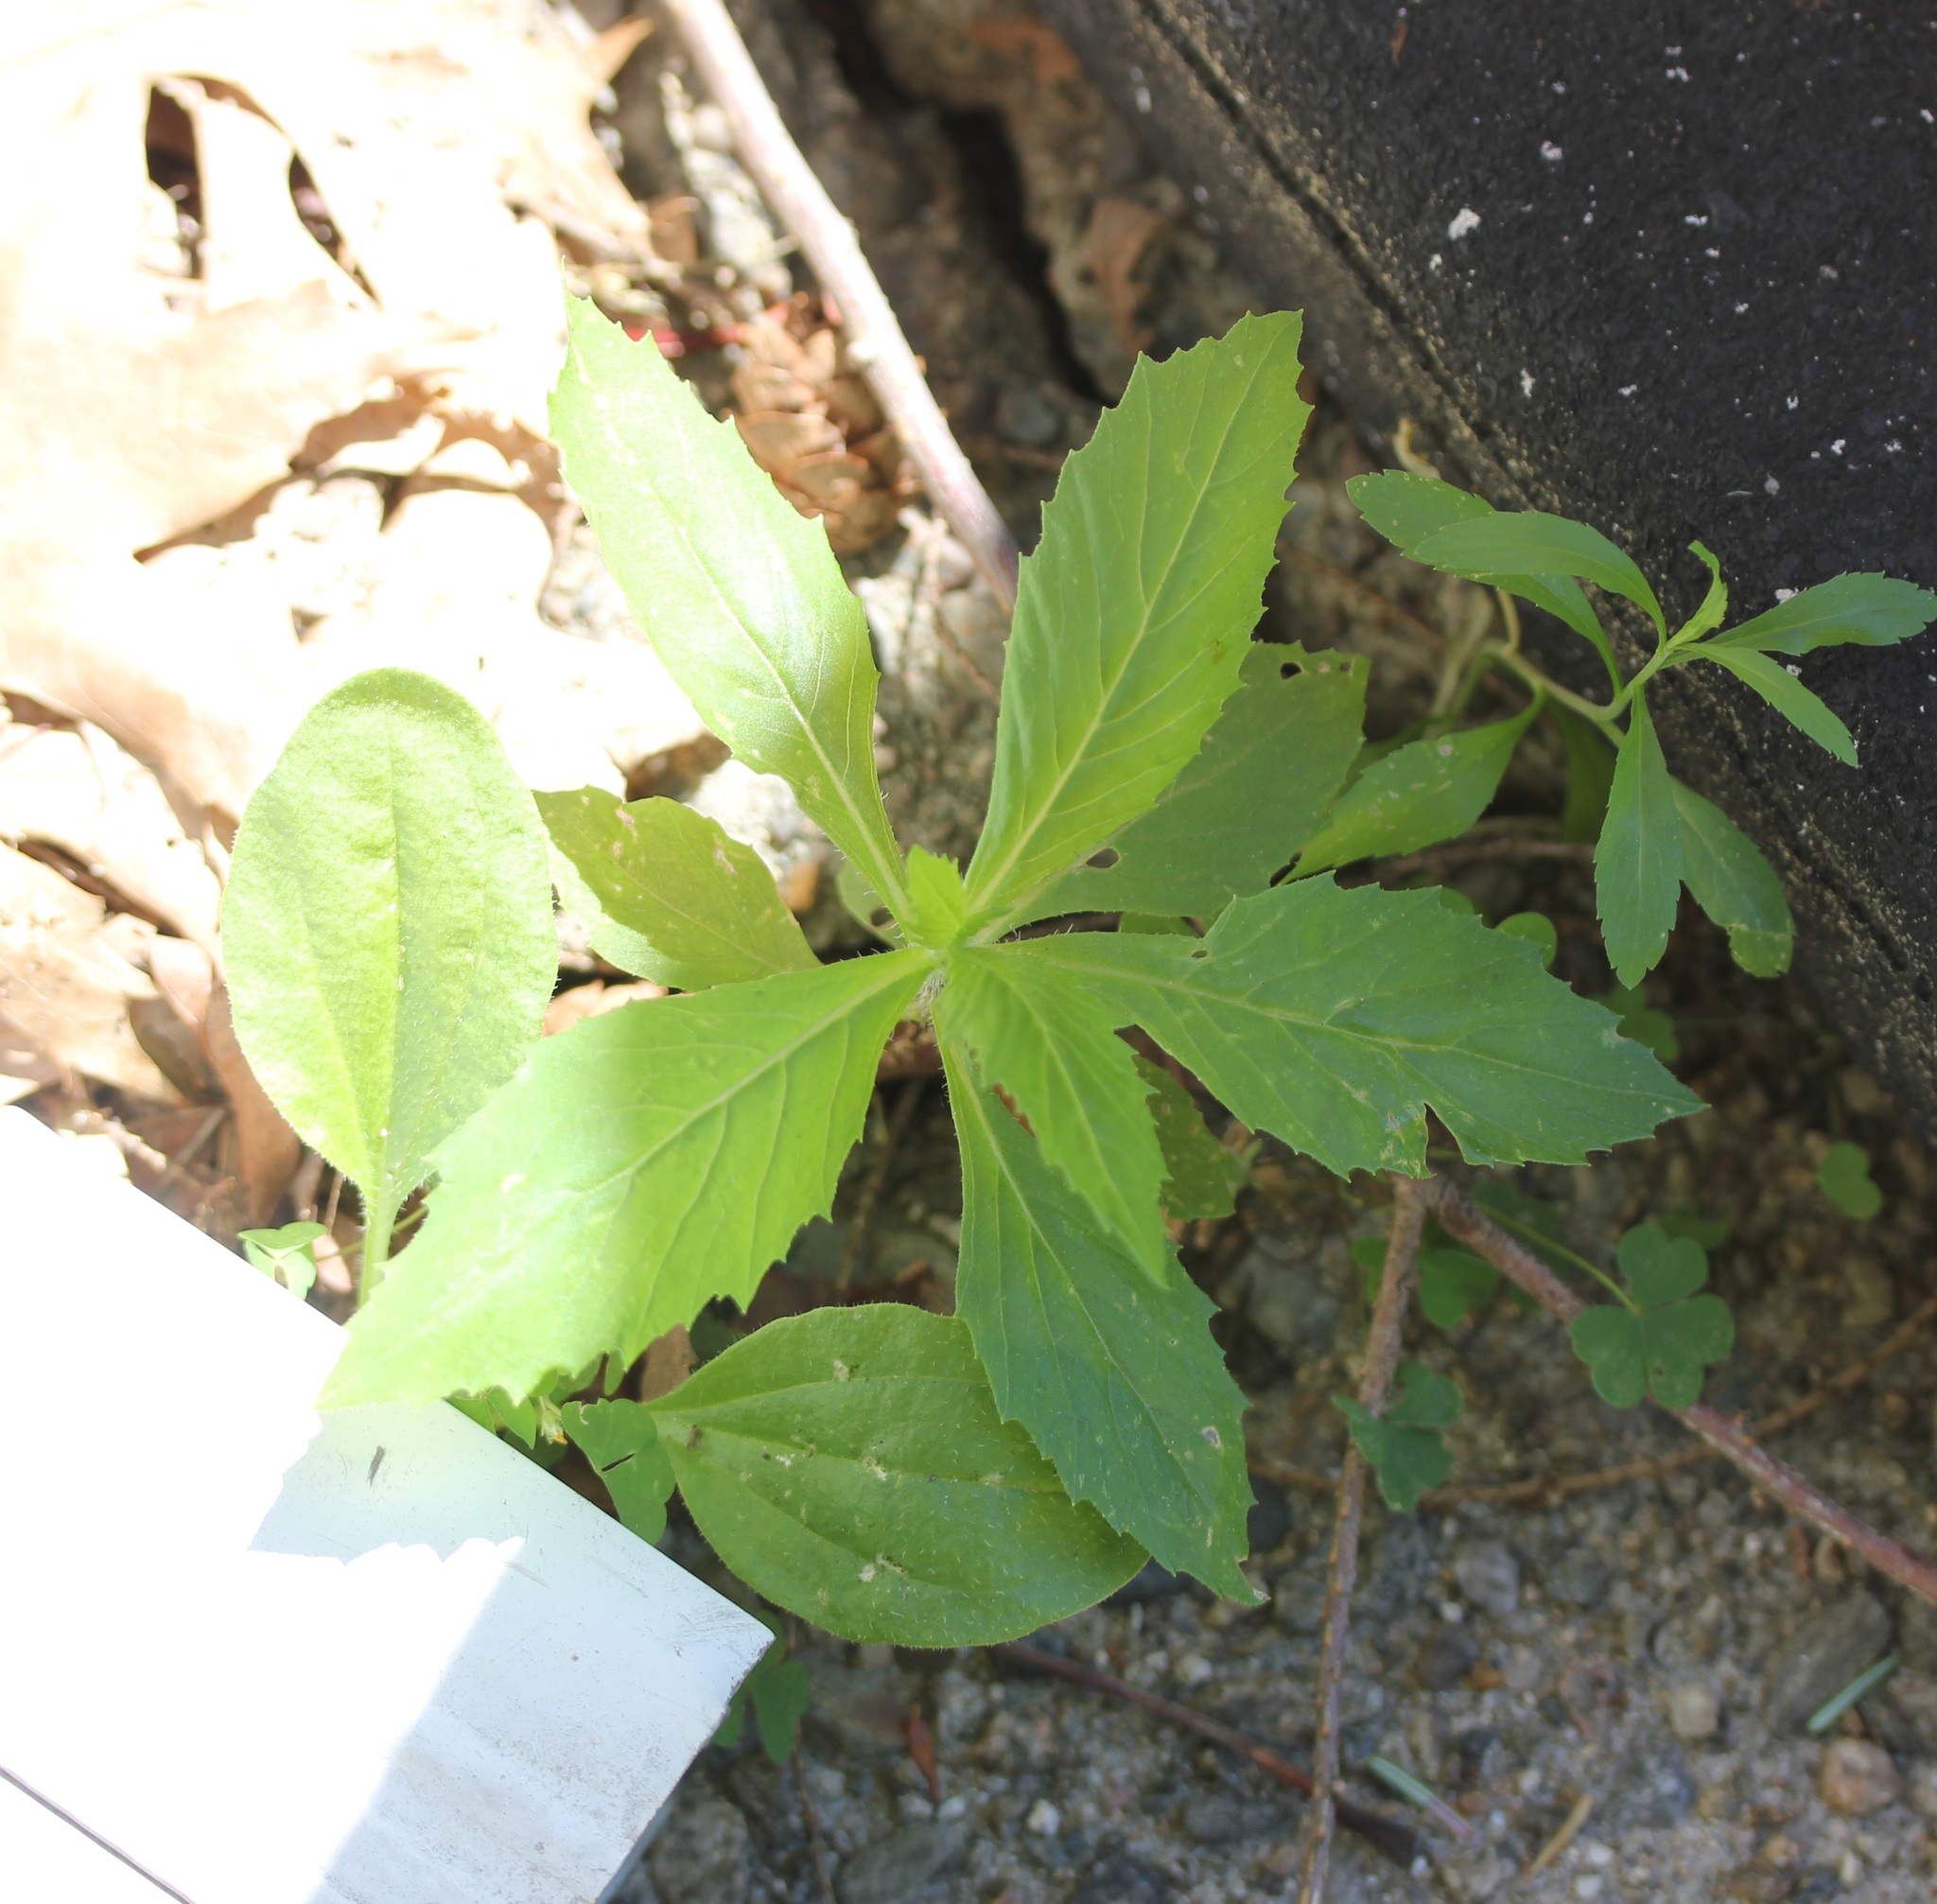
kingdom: Plantae
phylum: Tracheophyta
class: Magnoliopsida
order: Asterales
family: Asteraceae
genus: Erechtites
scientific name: Erechtites hieraciifolius
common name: American burnweed
